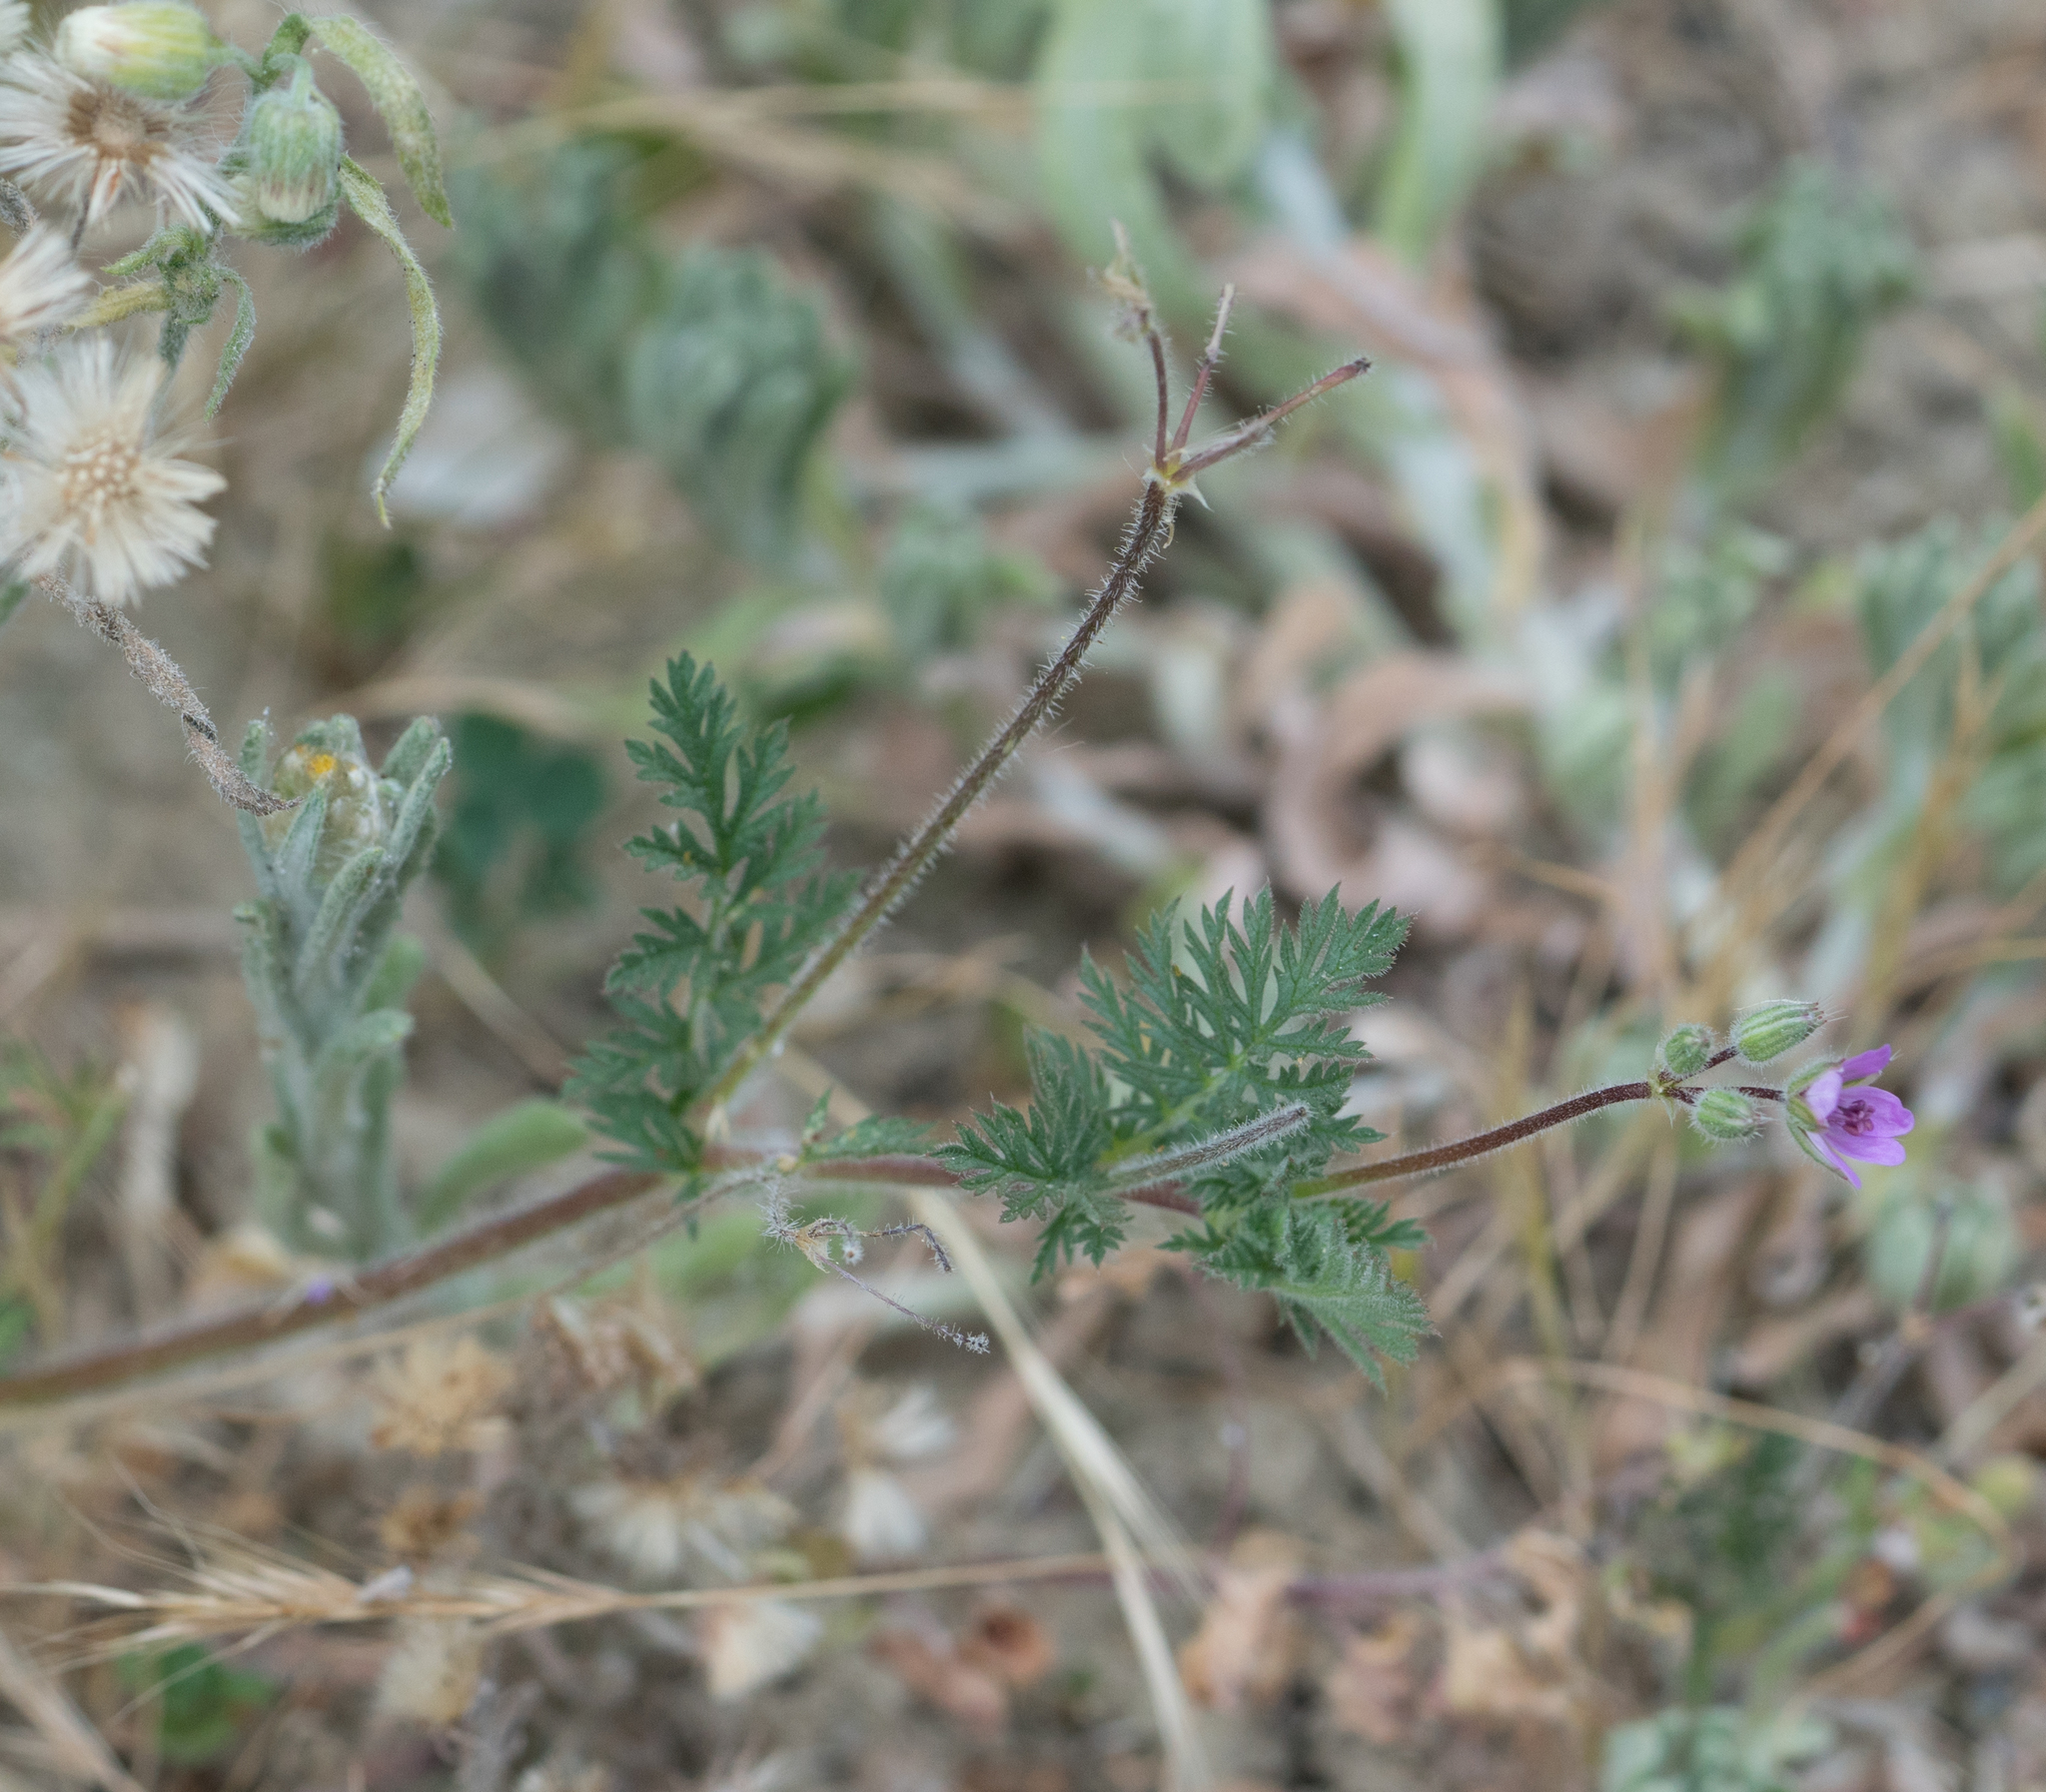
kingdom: Plantae
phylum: Tracheophyta
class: Magnoliopsida
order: Geraniales
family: Geraniaceae
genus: Erodium
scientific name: Erodium cicutarium
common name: Common stork's-bill
